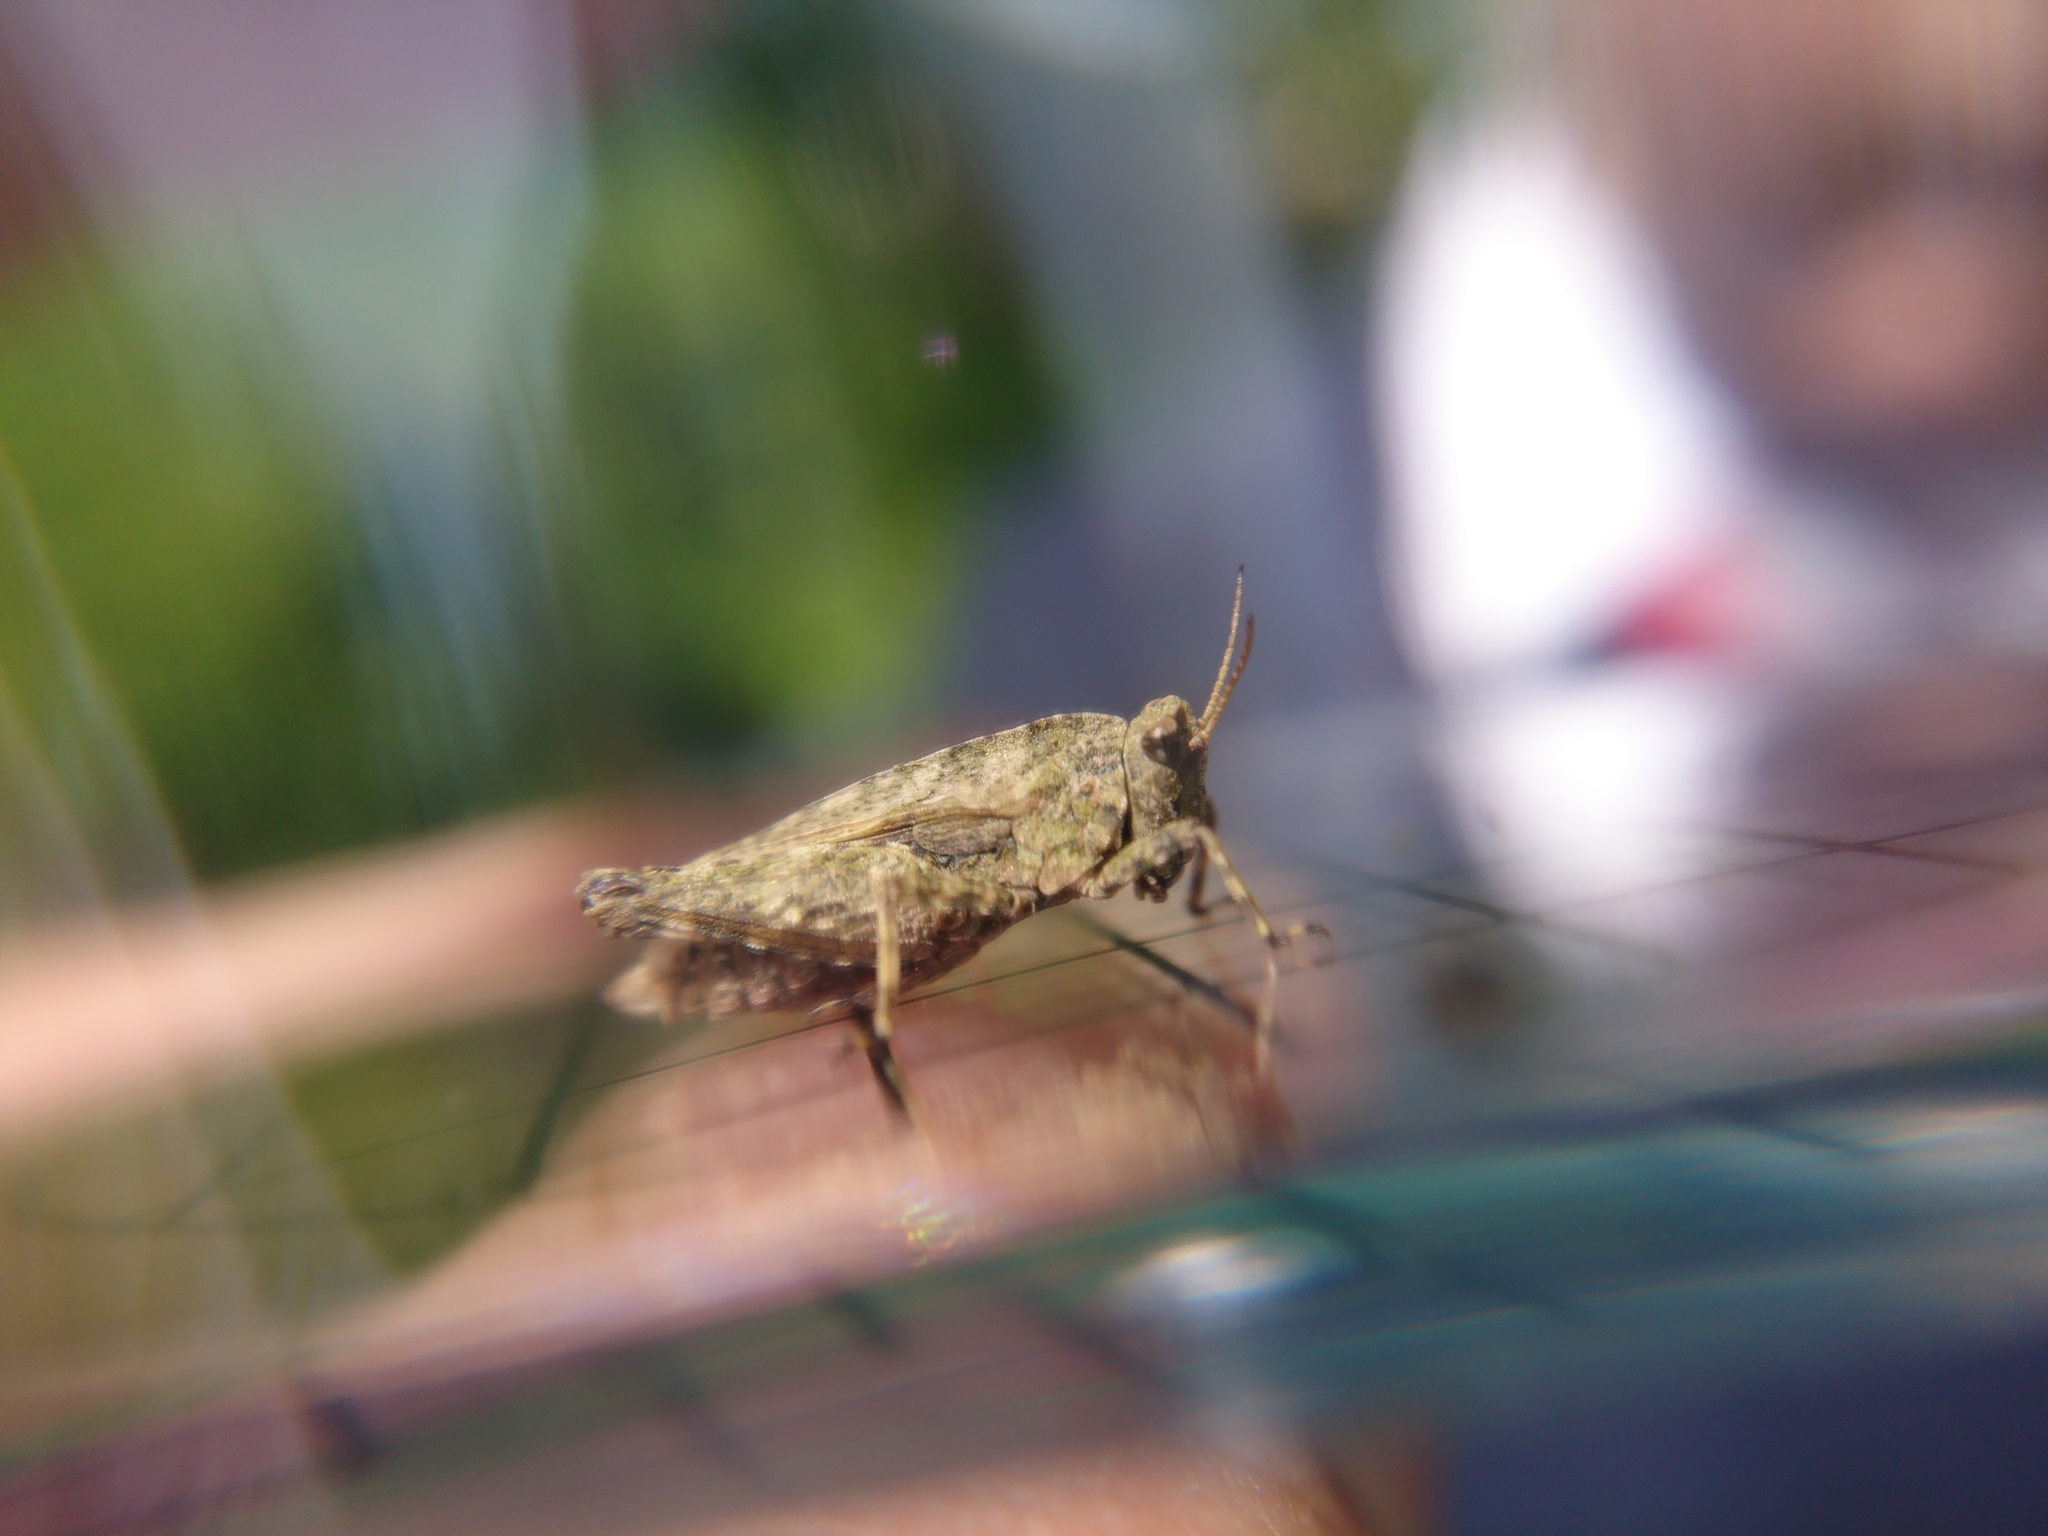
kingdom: Animalia
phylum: Arthropoda
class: Insecta
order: Orthoptera
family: Tetrigidae
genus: Tetrix
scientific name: Tetrix undulata
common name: Common groundhopper
